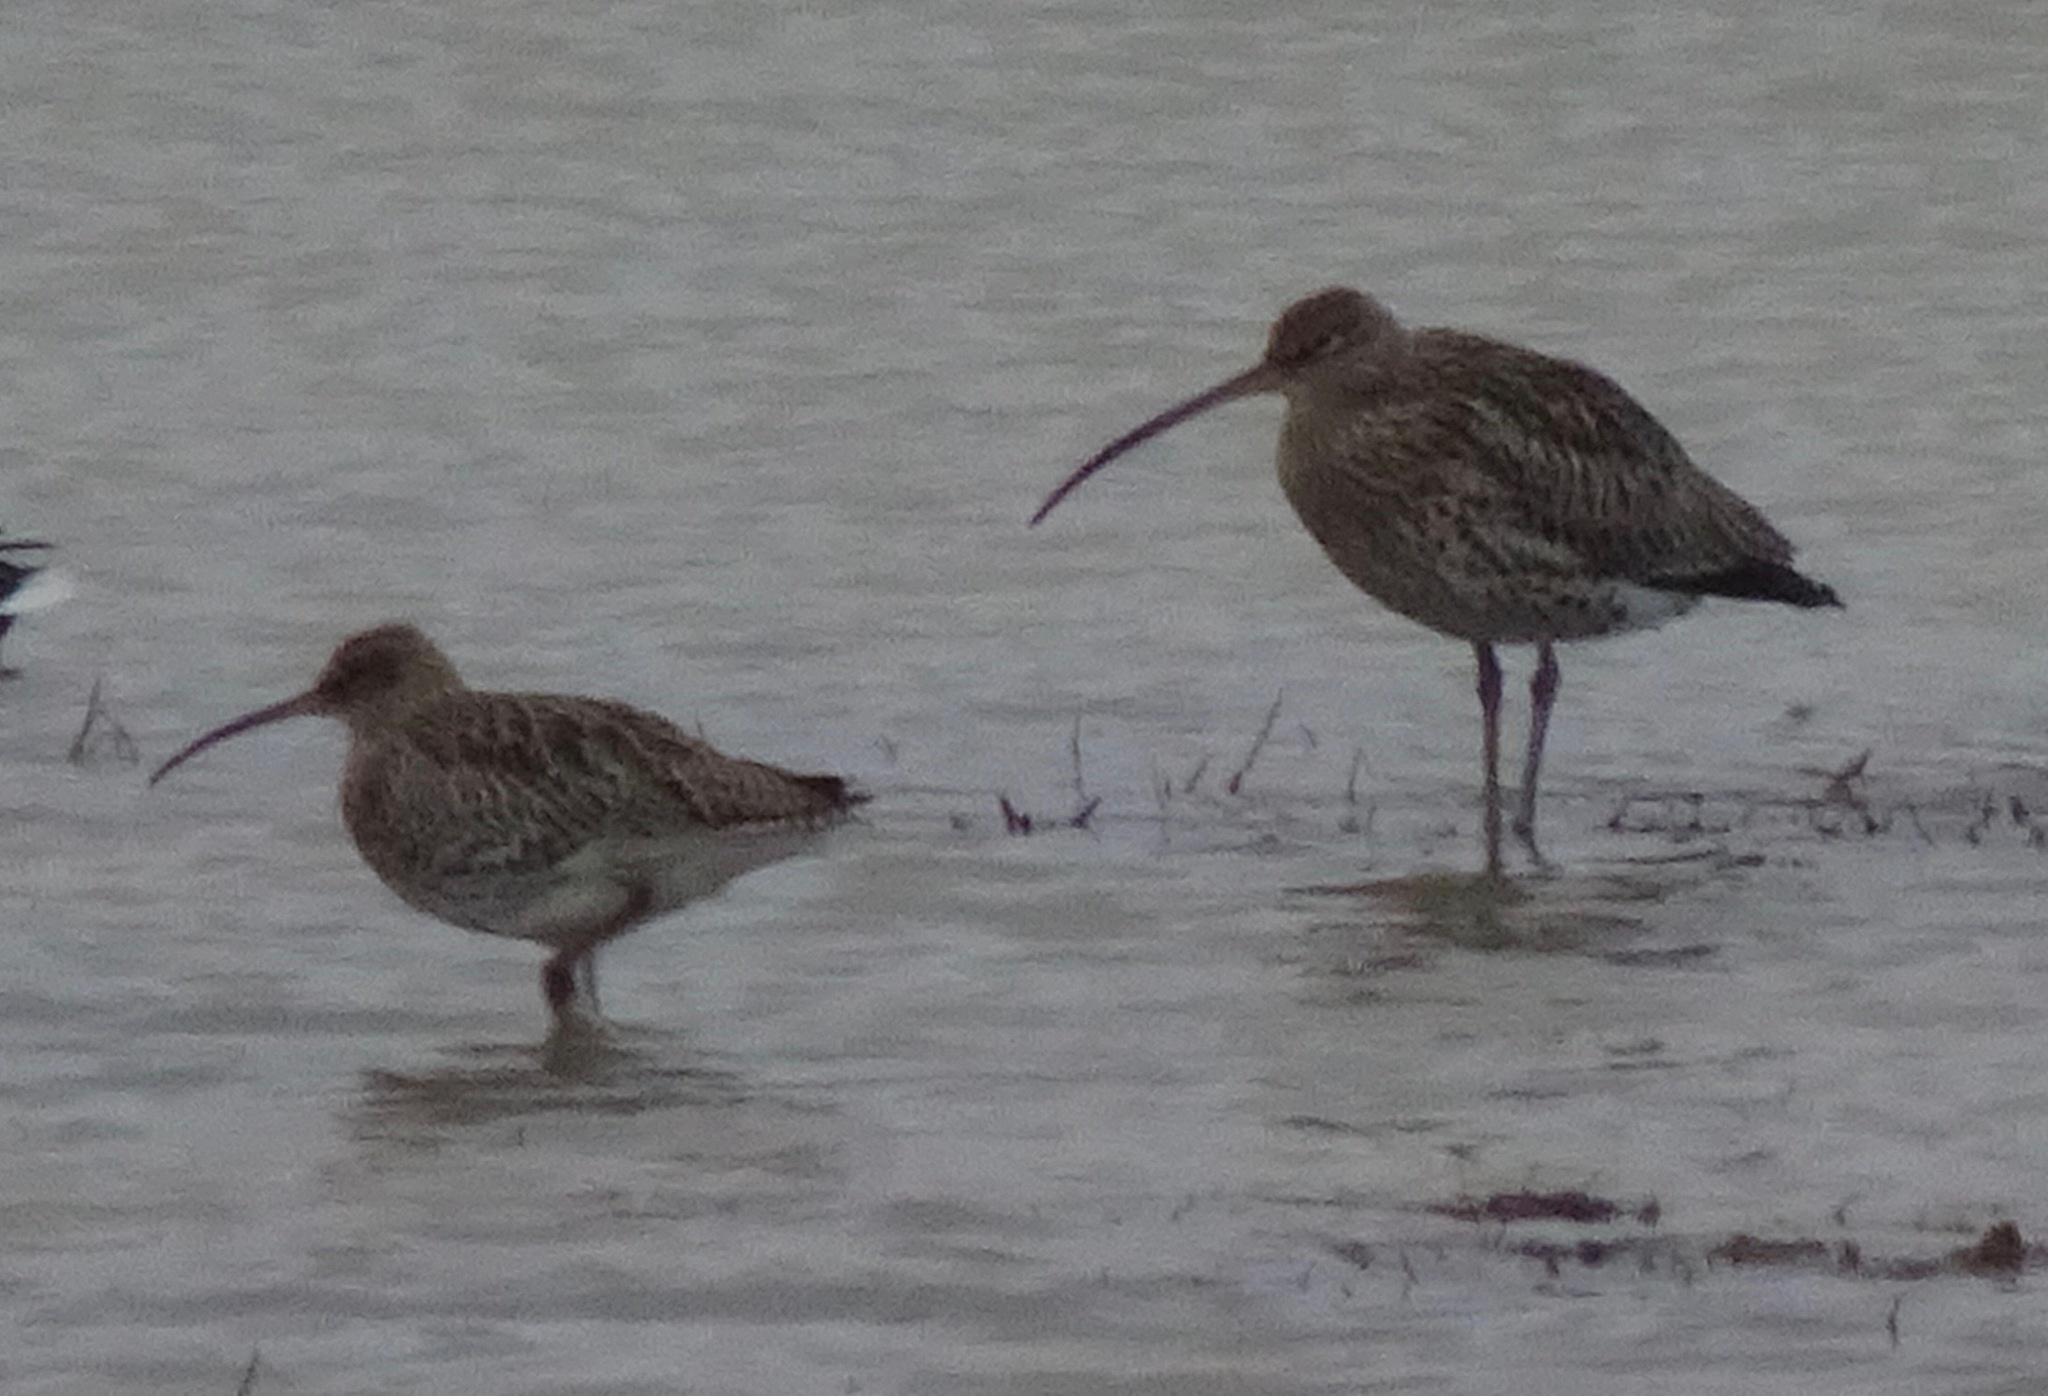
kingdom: Animalia
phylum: Chordata
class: Aves
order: Charadriiformes
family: Scolopacidae
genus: Numenius
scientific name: Numenius arquata
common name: Eurasian curlew
